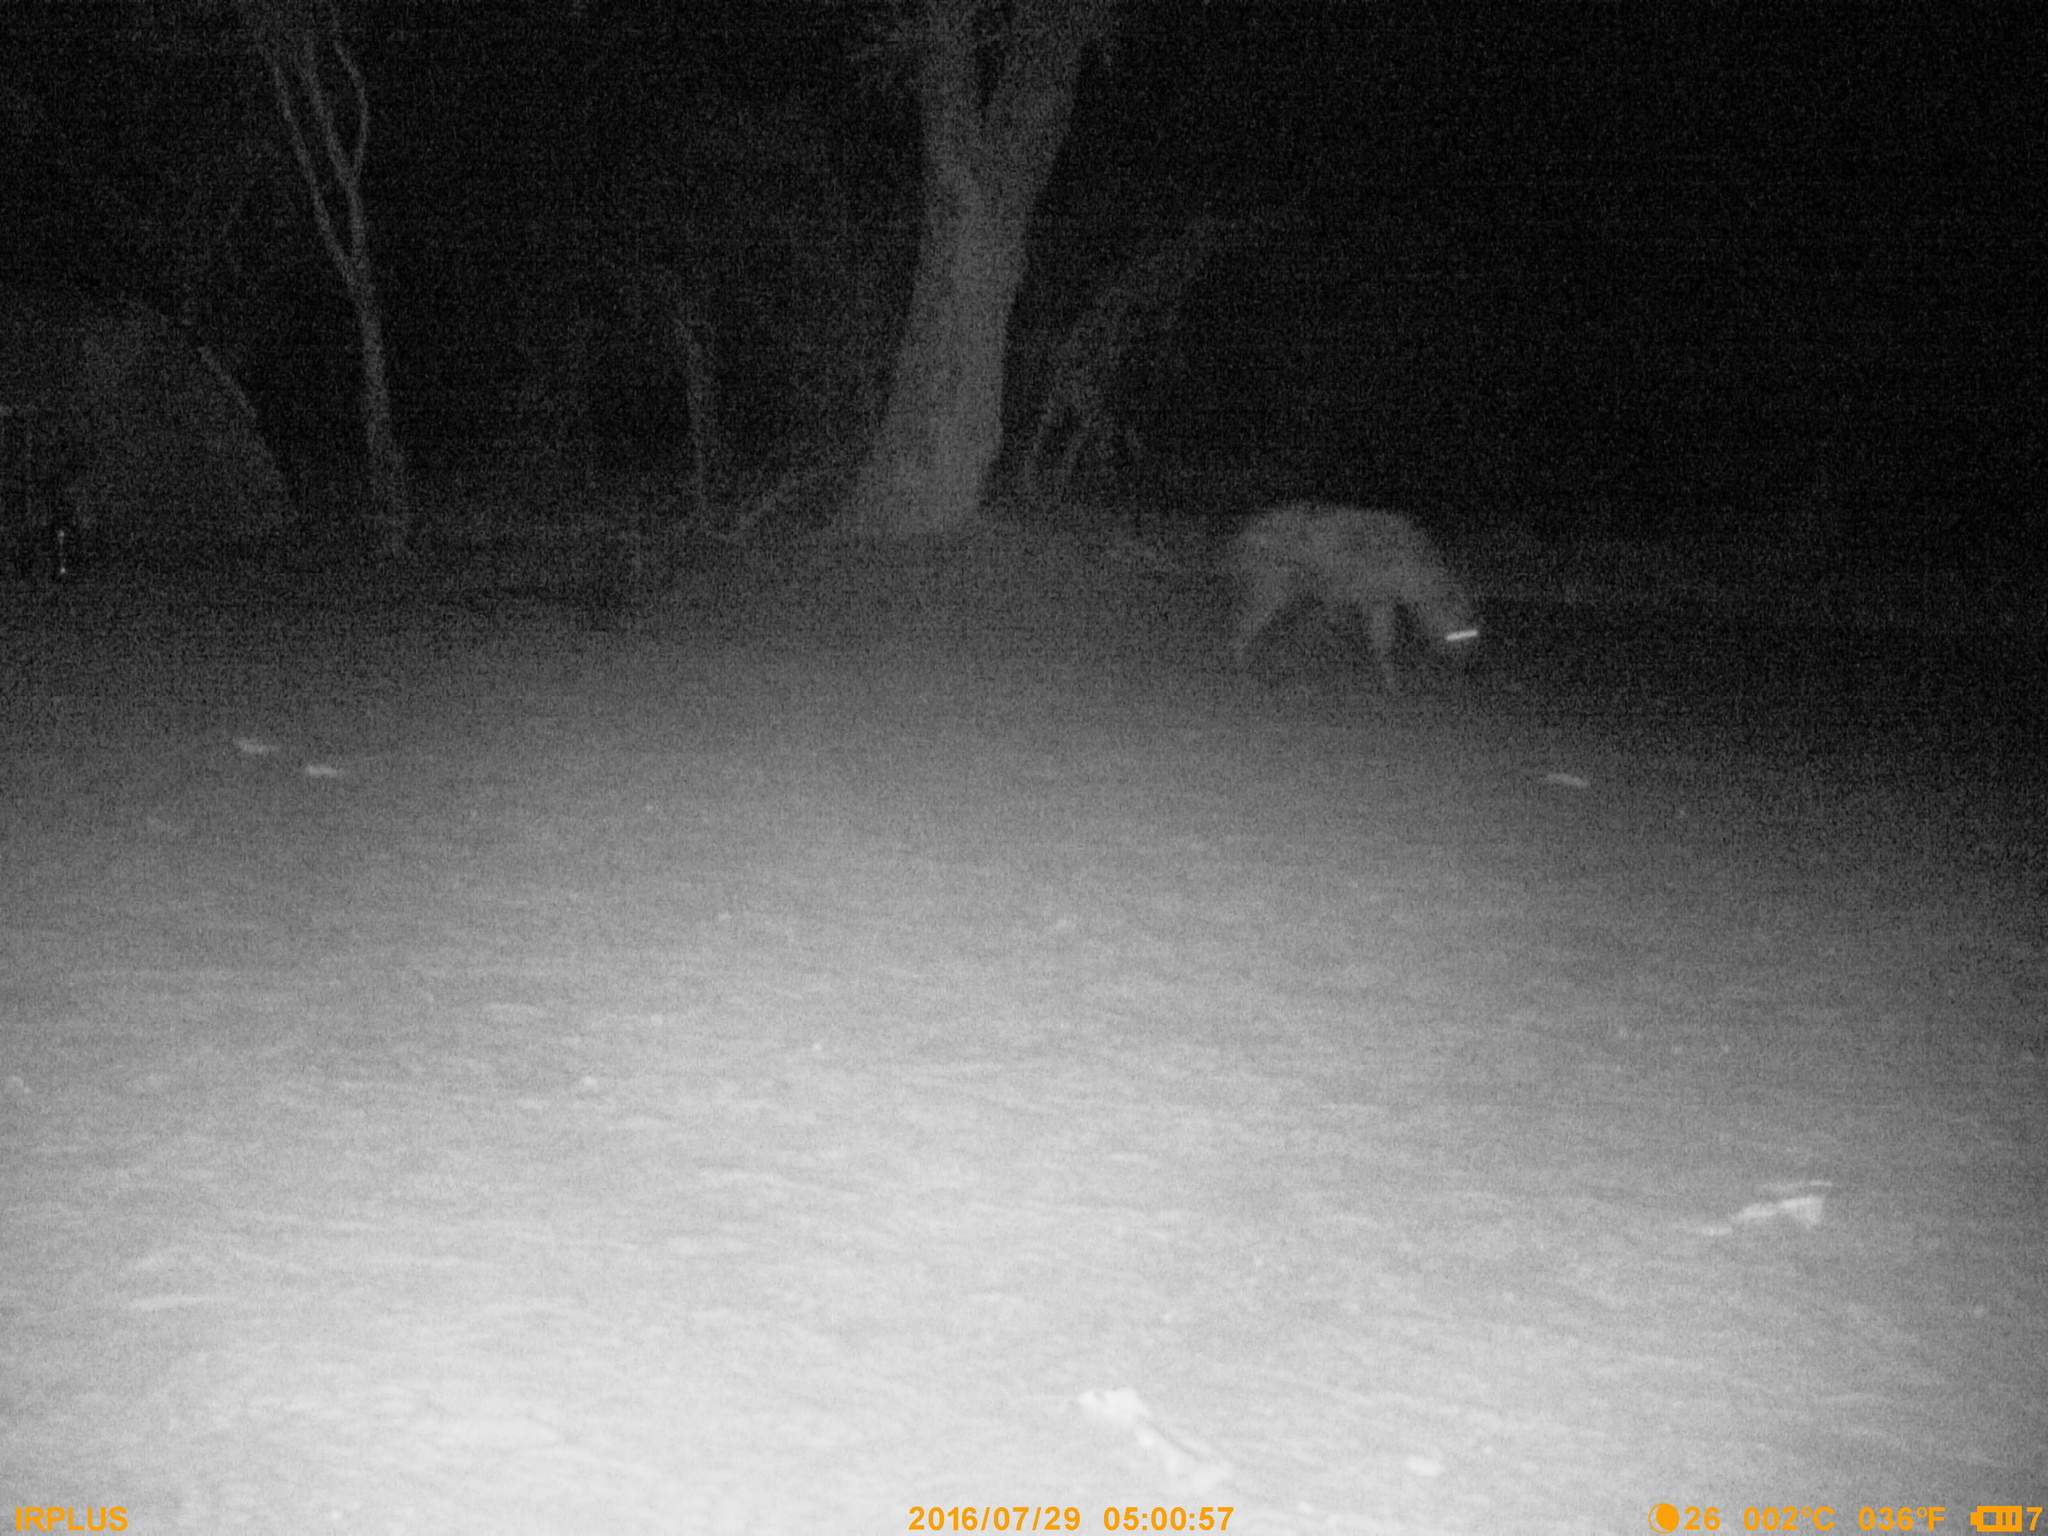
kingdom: Animalia
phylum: Chordata
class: Mammalia
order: Carnivora
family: Hyaenidae
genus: Crocuta
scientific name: Crocuta crocuta
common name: Spotted hyaena
